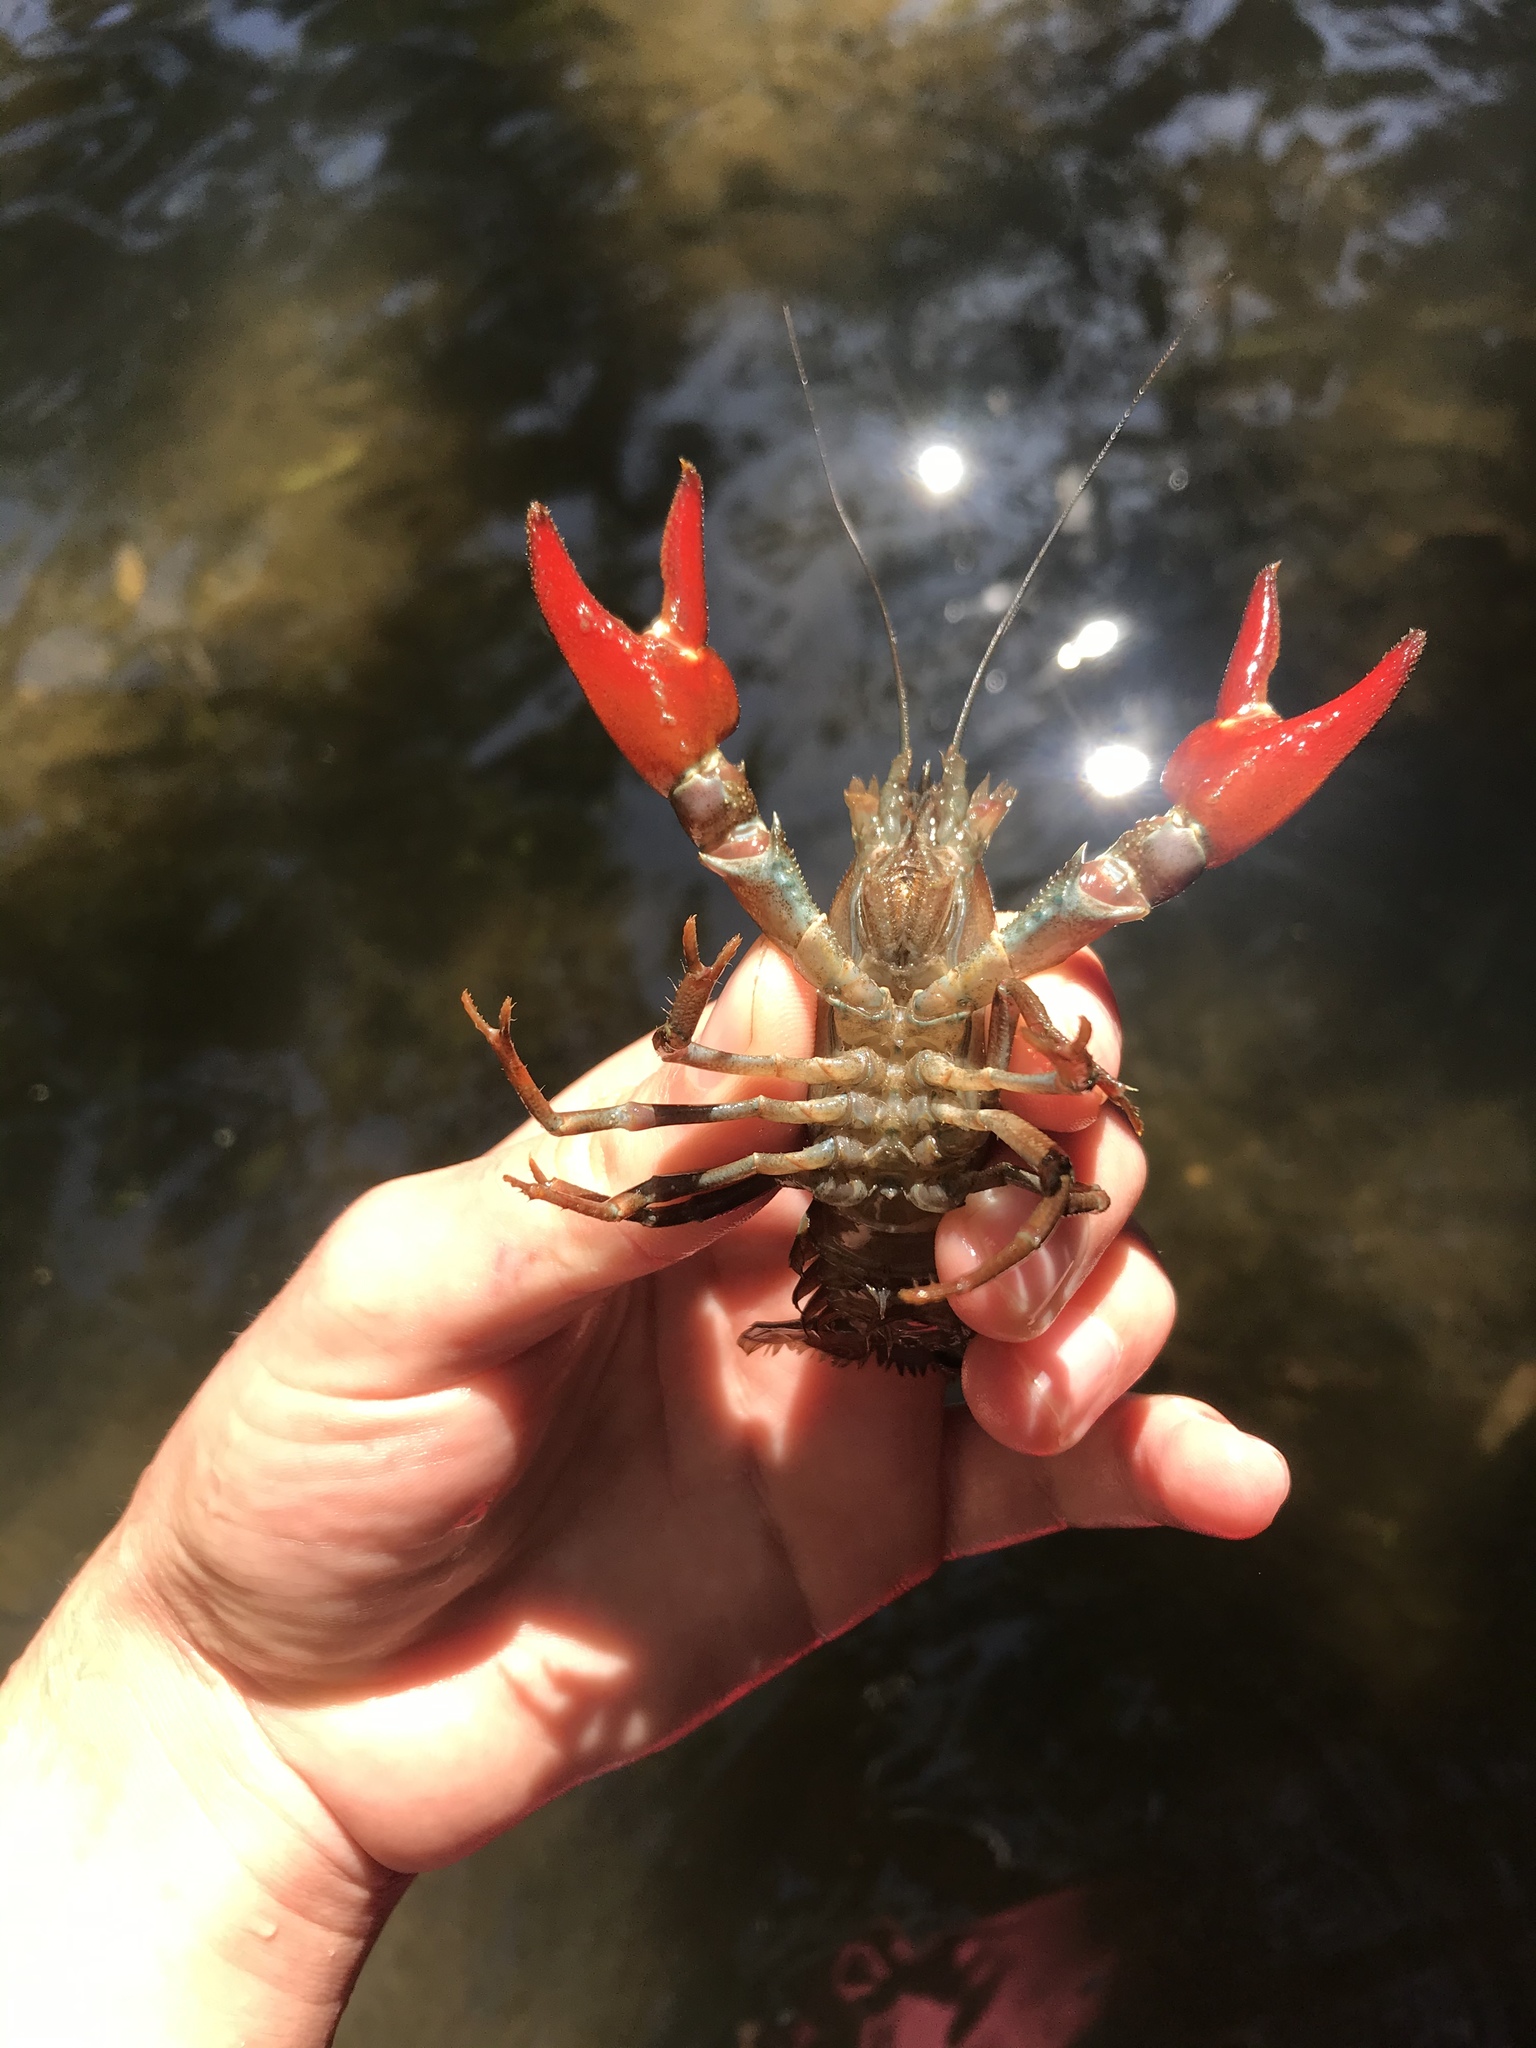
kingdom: Animalia
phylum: Arthropoda
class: Malacostraca
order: Decapoda
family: Astacidae
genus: Pacifastacus
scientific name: Pacifastacus leniusculus
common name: Signal crayfish
